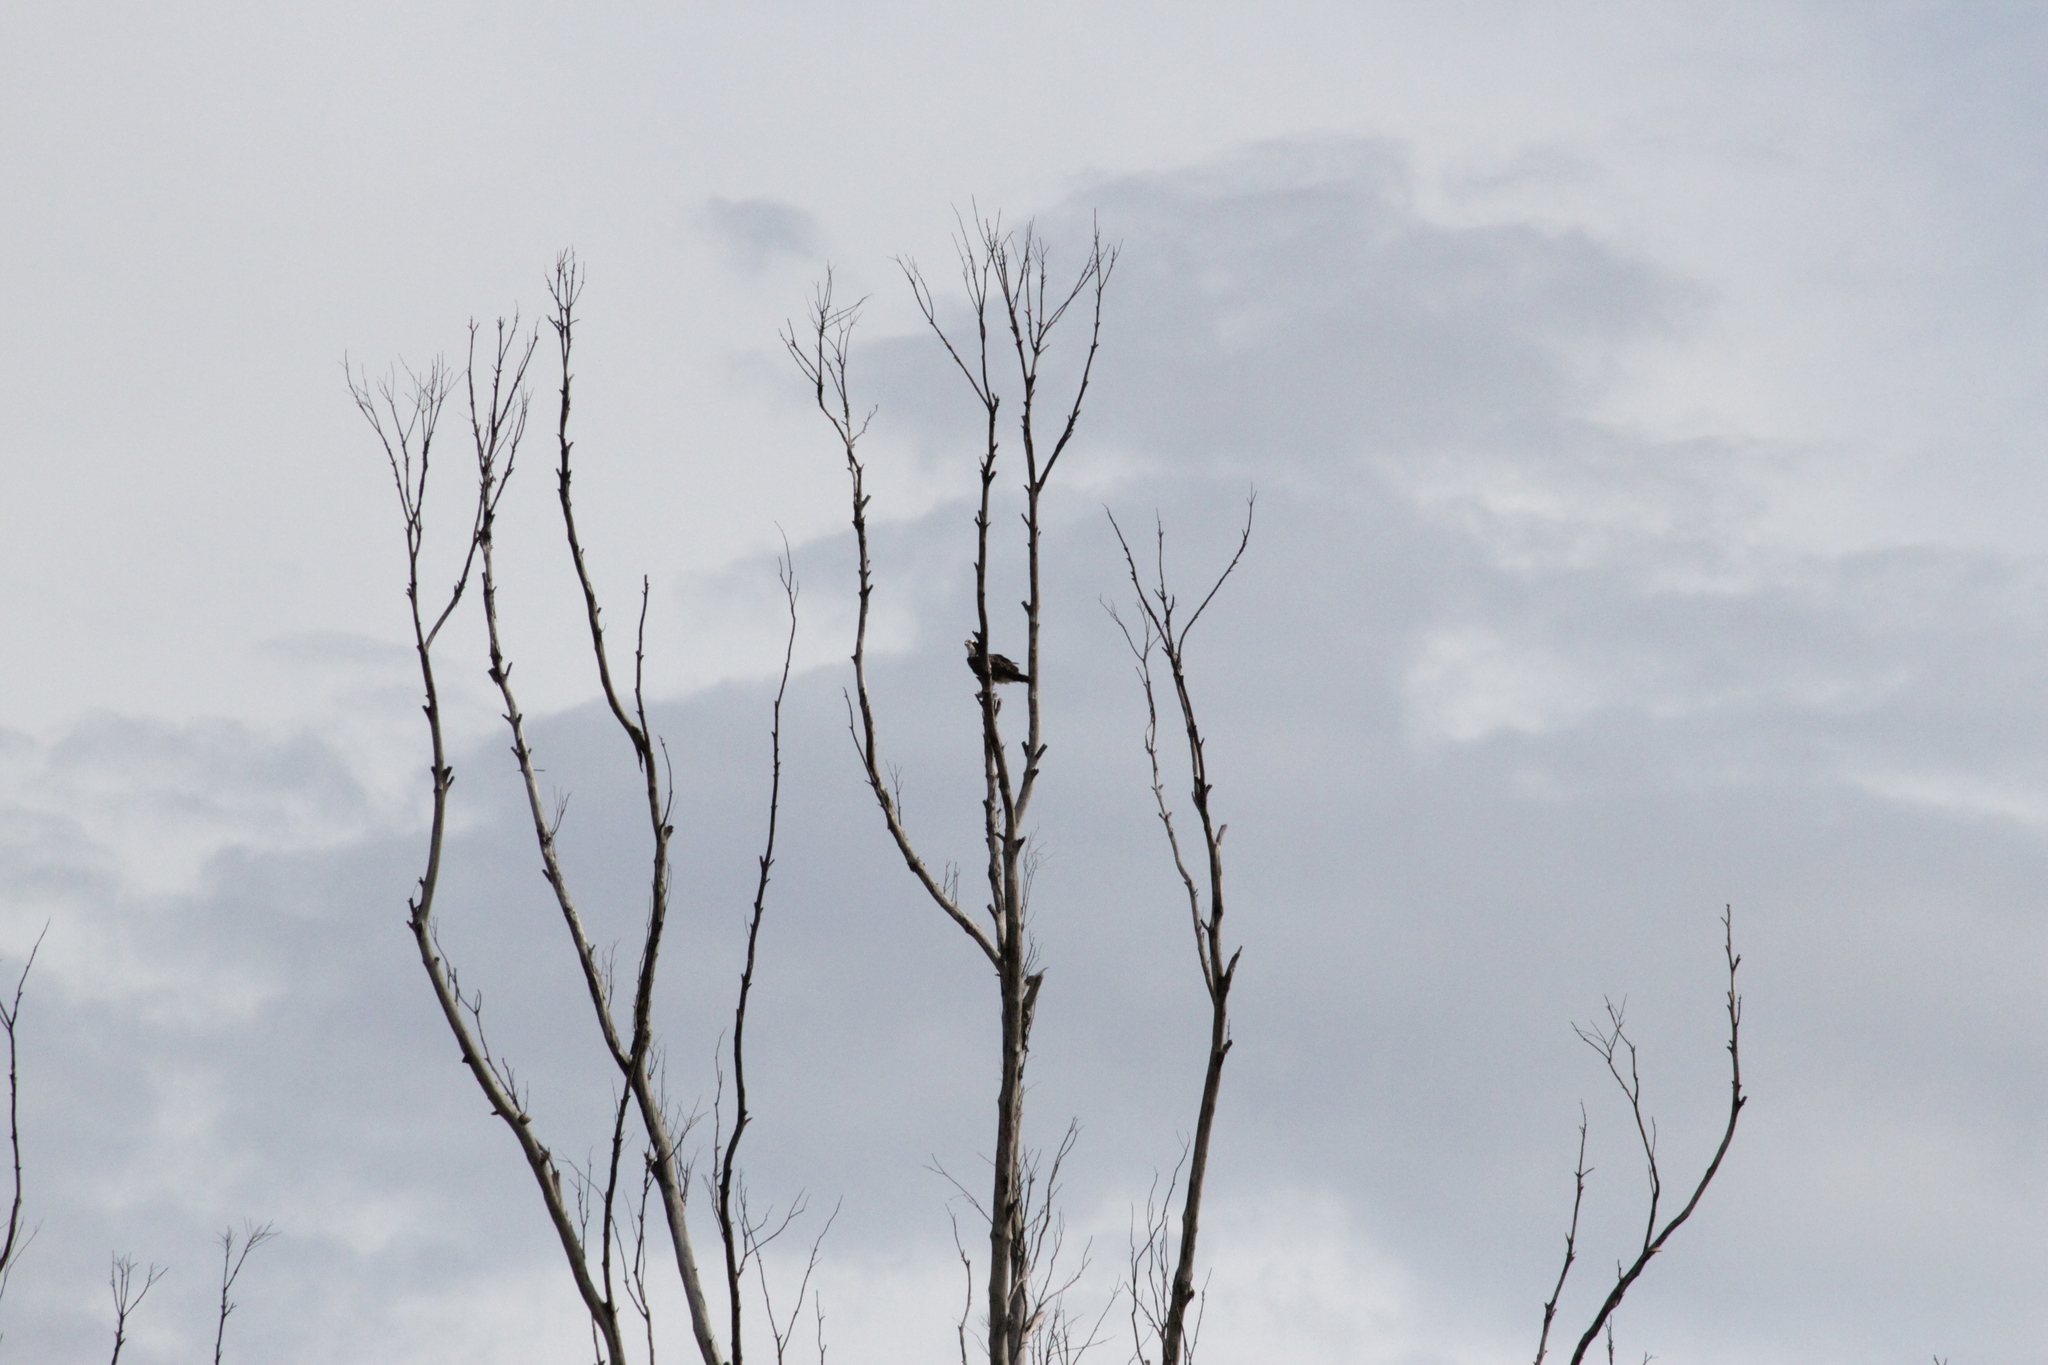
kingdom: Animalia
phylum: Chordata
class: Aves
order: Accipitriformes
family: Pandionidae
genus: Pandion
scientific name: Pandion haliaetus
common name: Osprey
